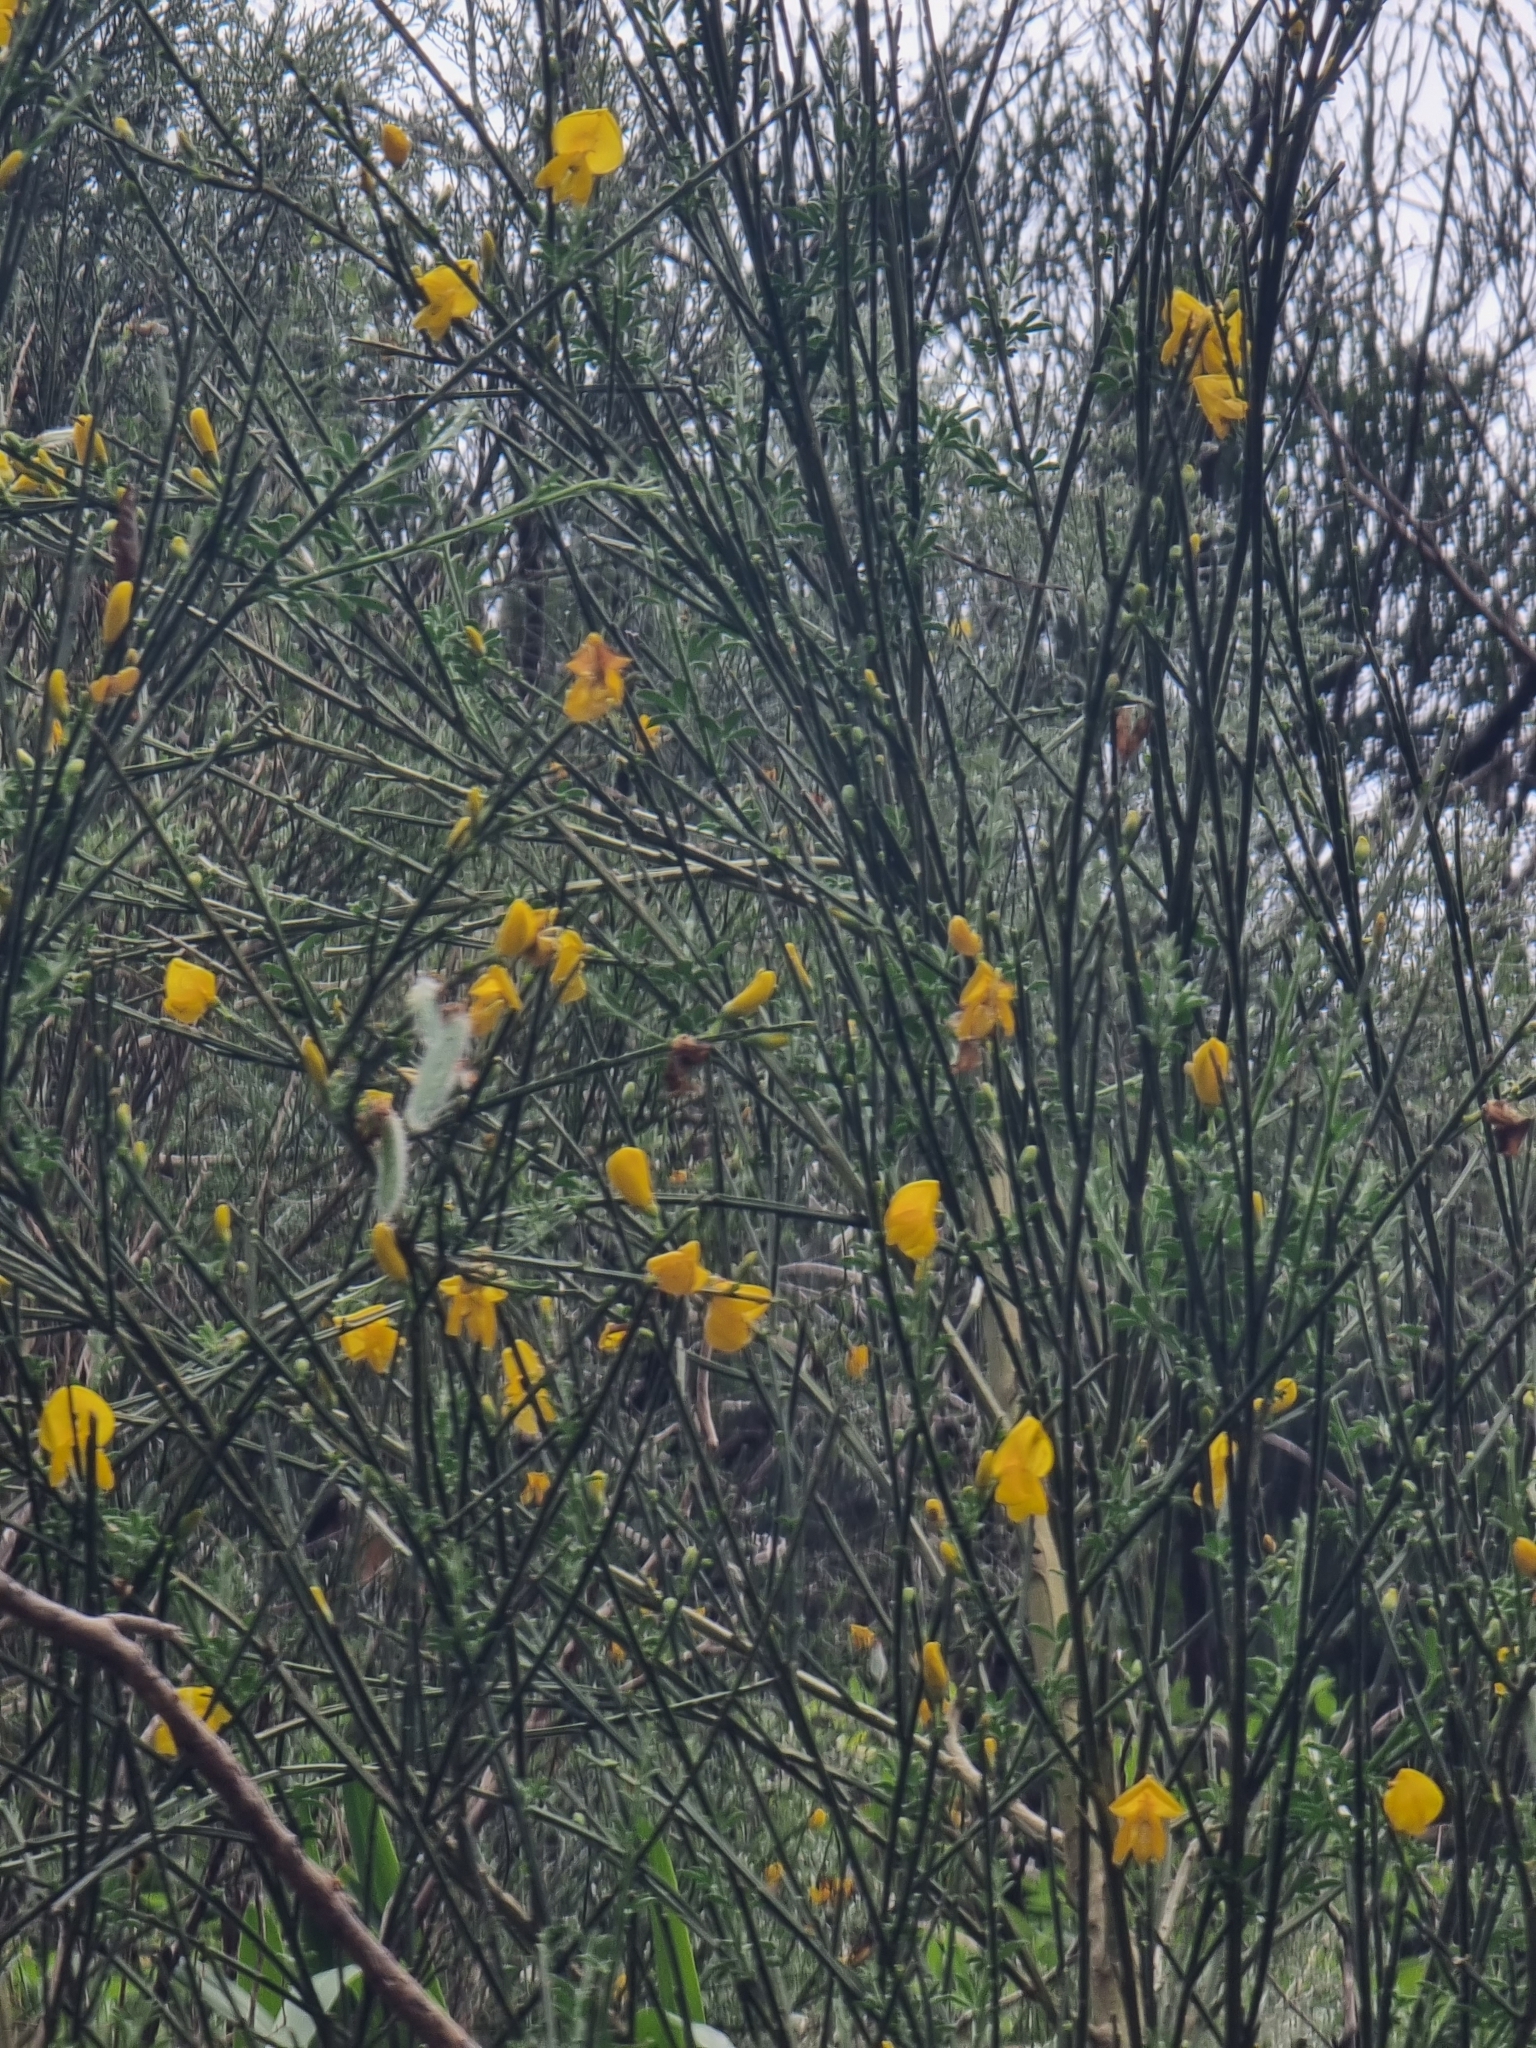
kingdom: Plantae
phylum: Tracheophyta
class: Magnoliopsida
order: Fabales
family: Fabaceae
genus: Cytisus
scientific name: Cytisus scoparius
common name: Scotch broom
